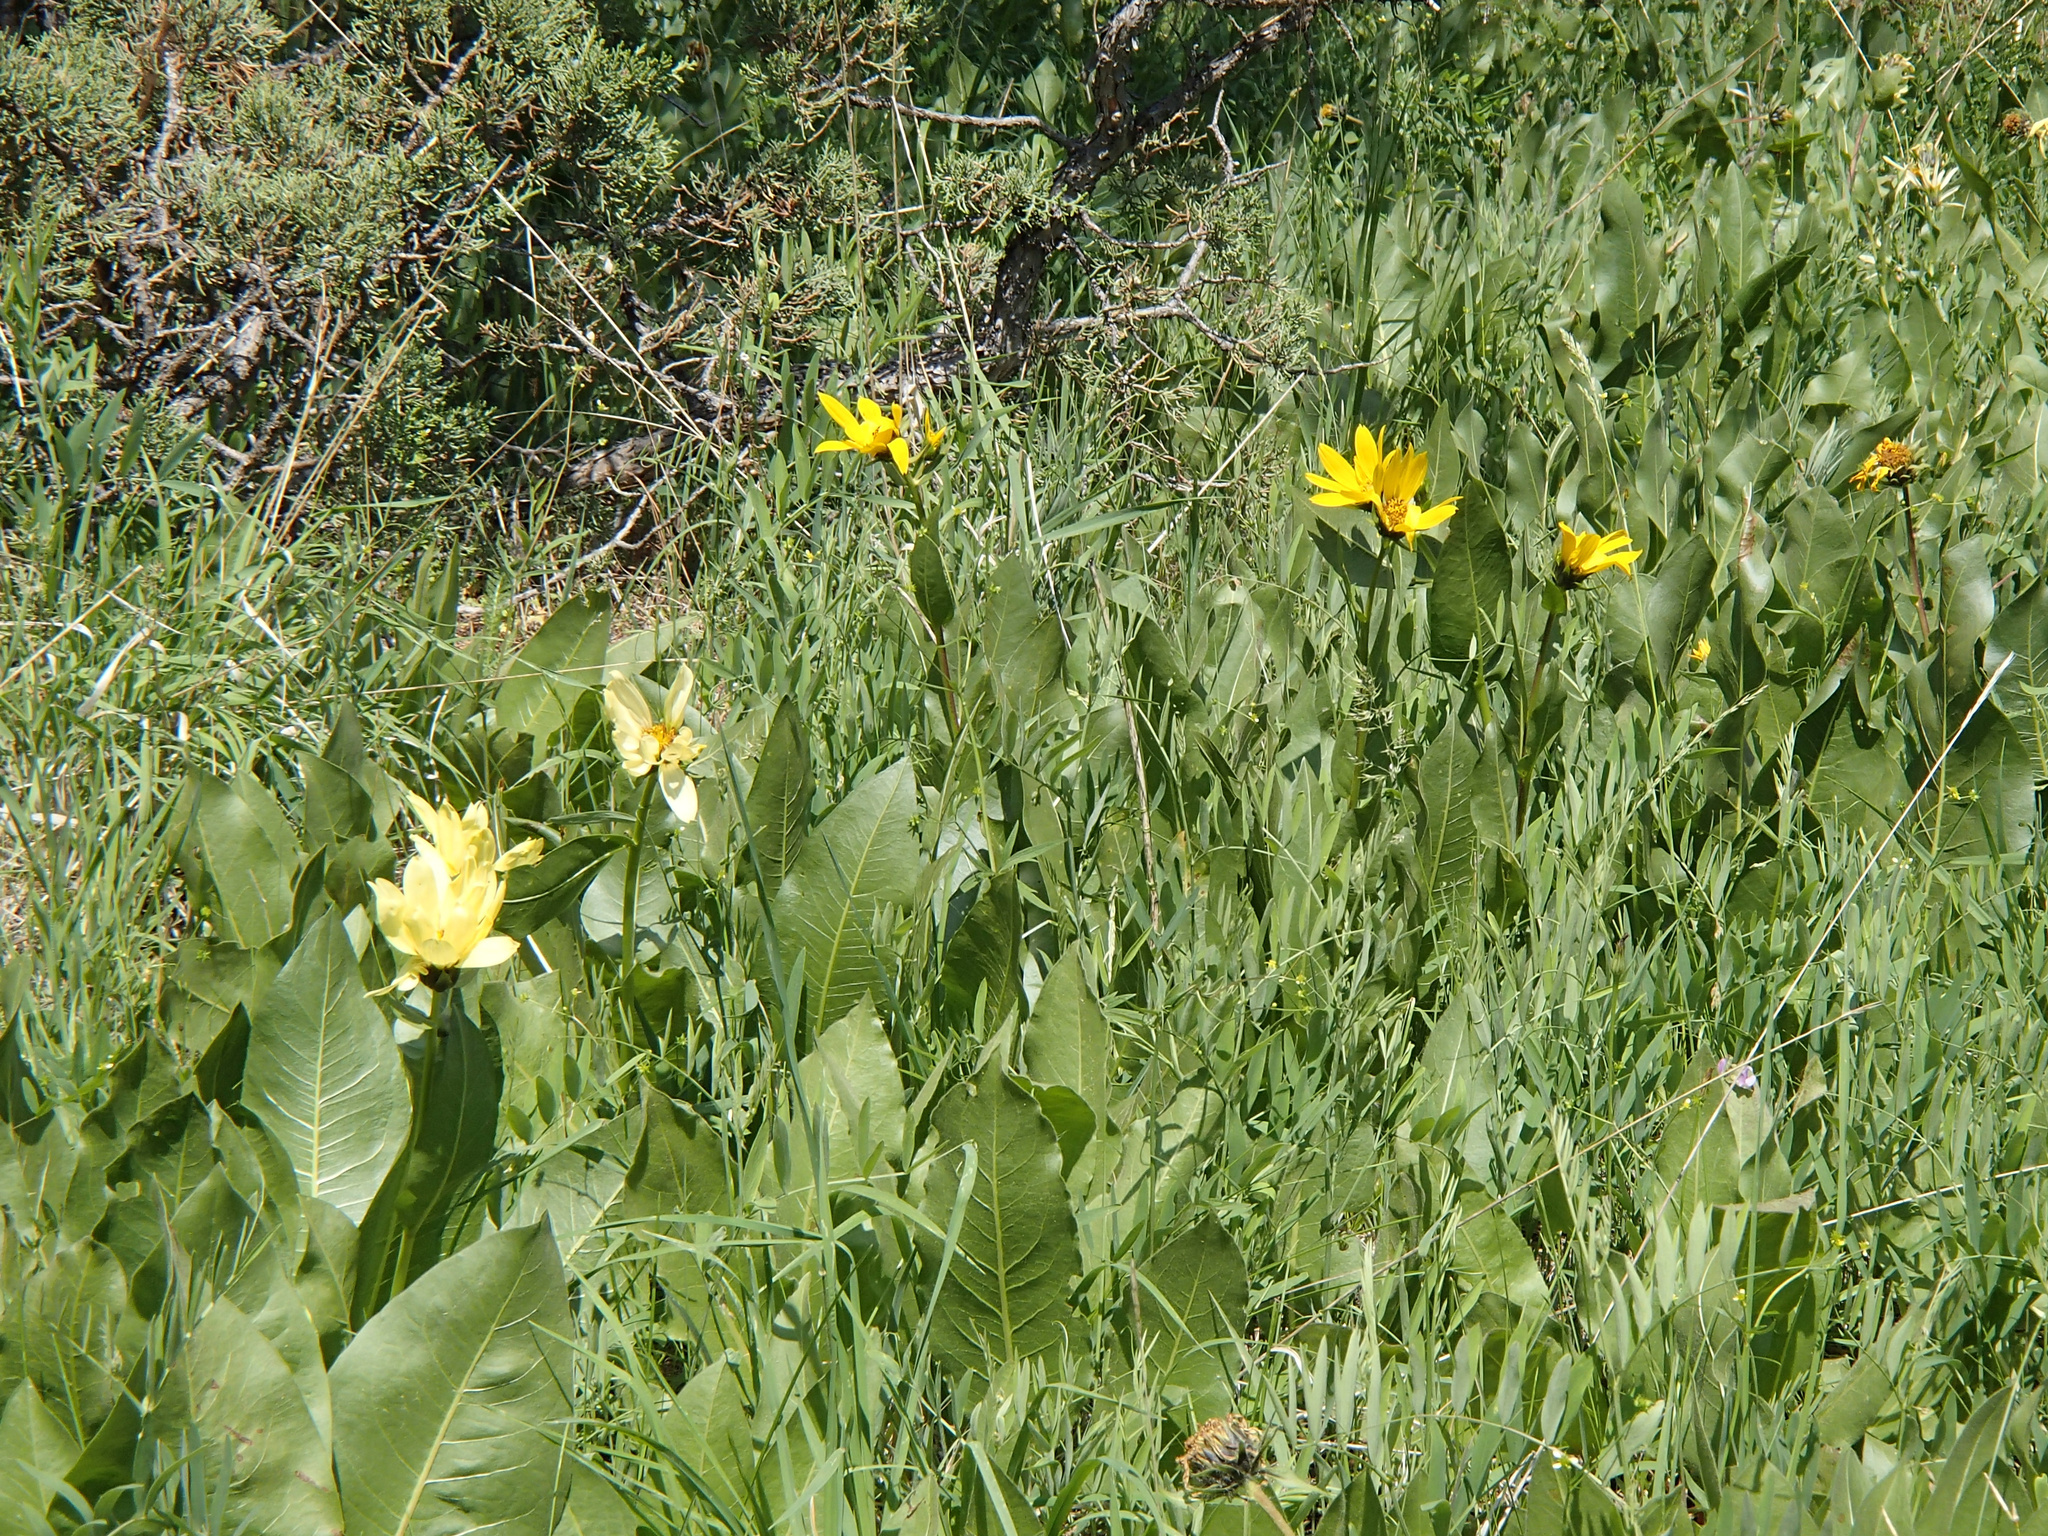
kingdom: Plantae
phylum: Tracheophyta
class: Magnoliopsida
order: Asterales
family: Asteraceae
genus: Wyethia
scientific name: Wyethia cusickii
